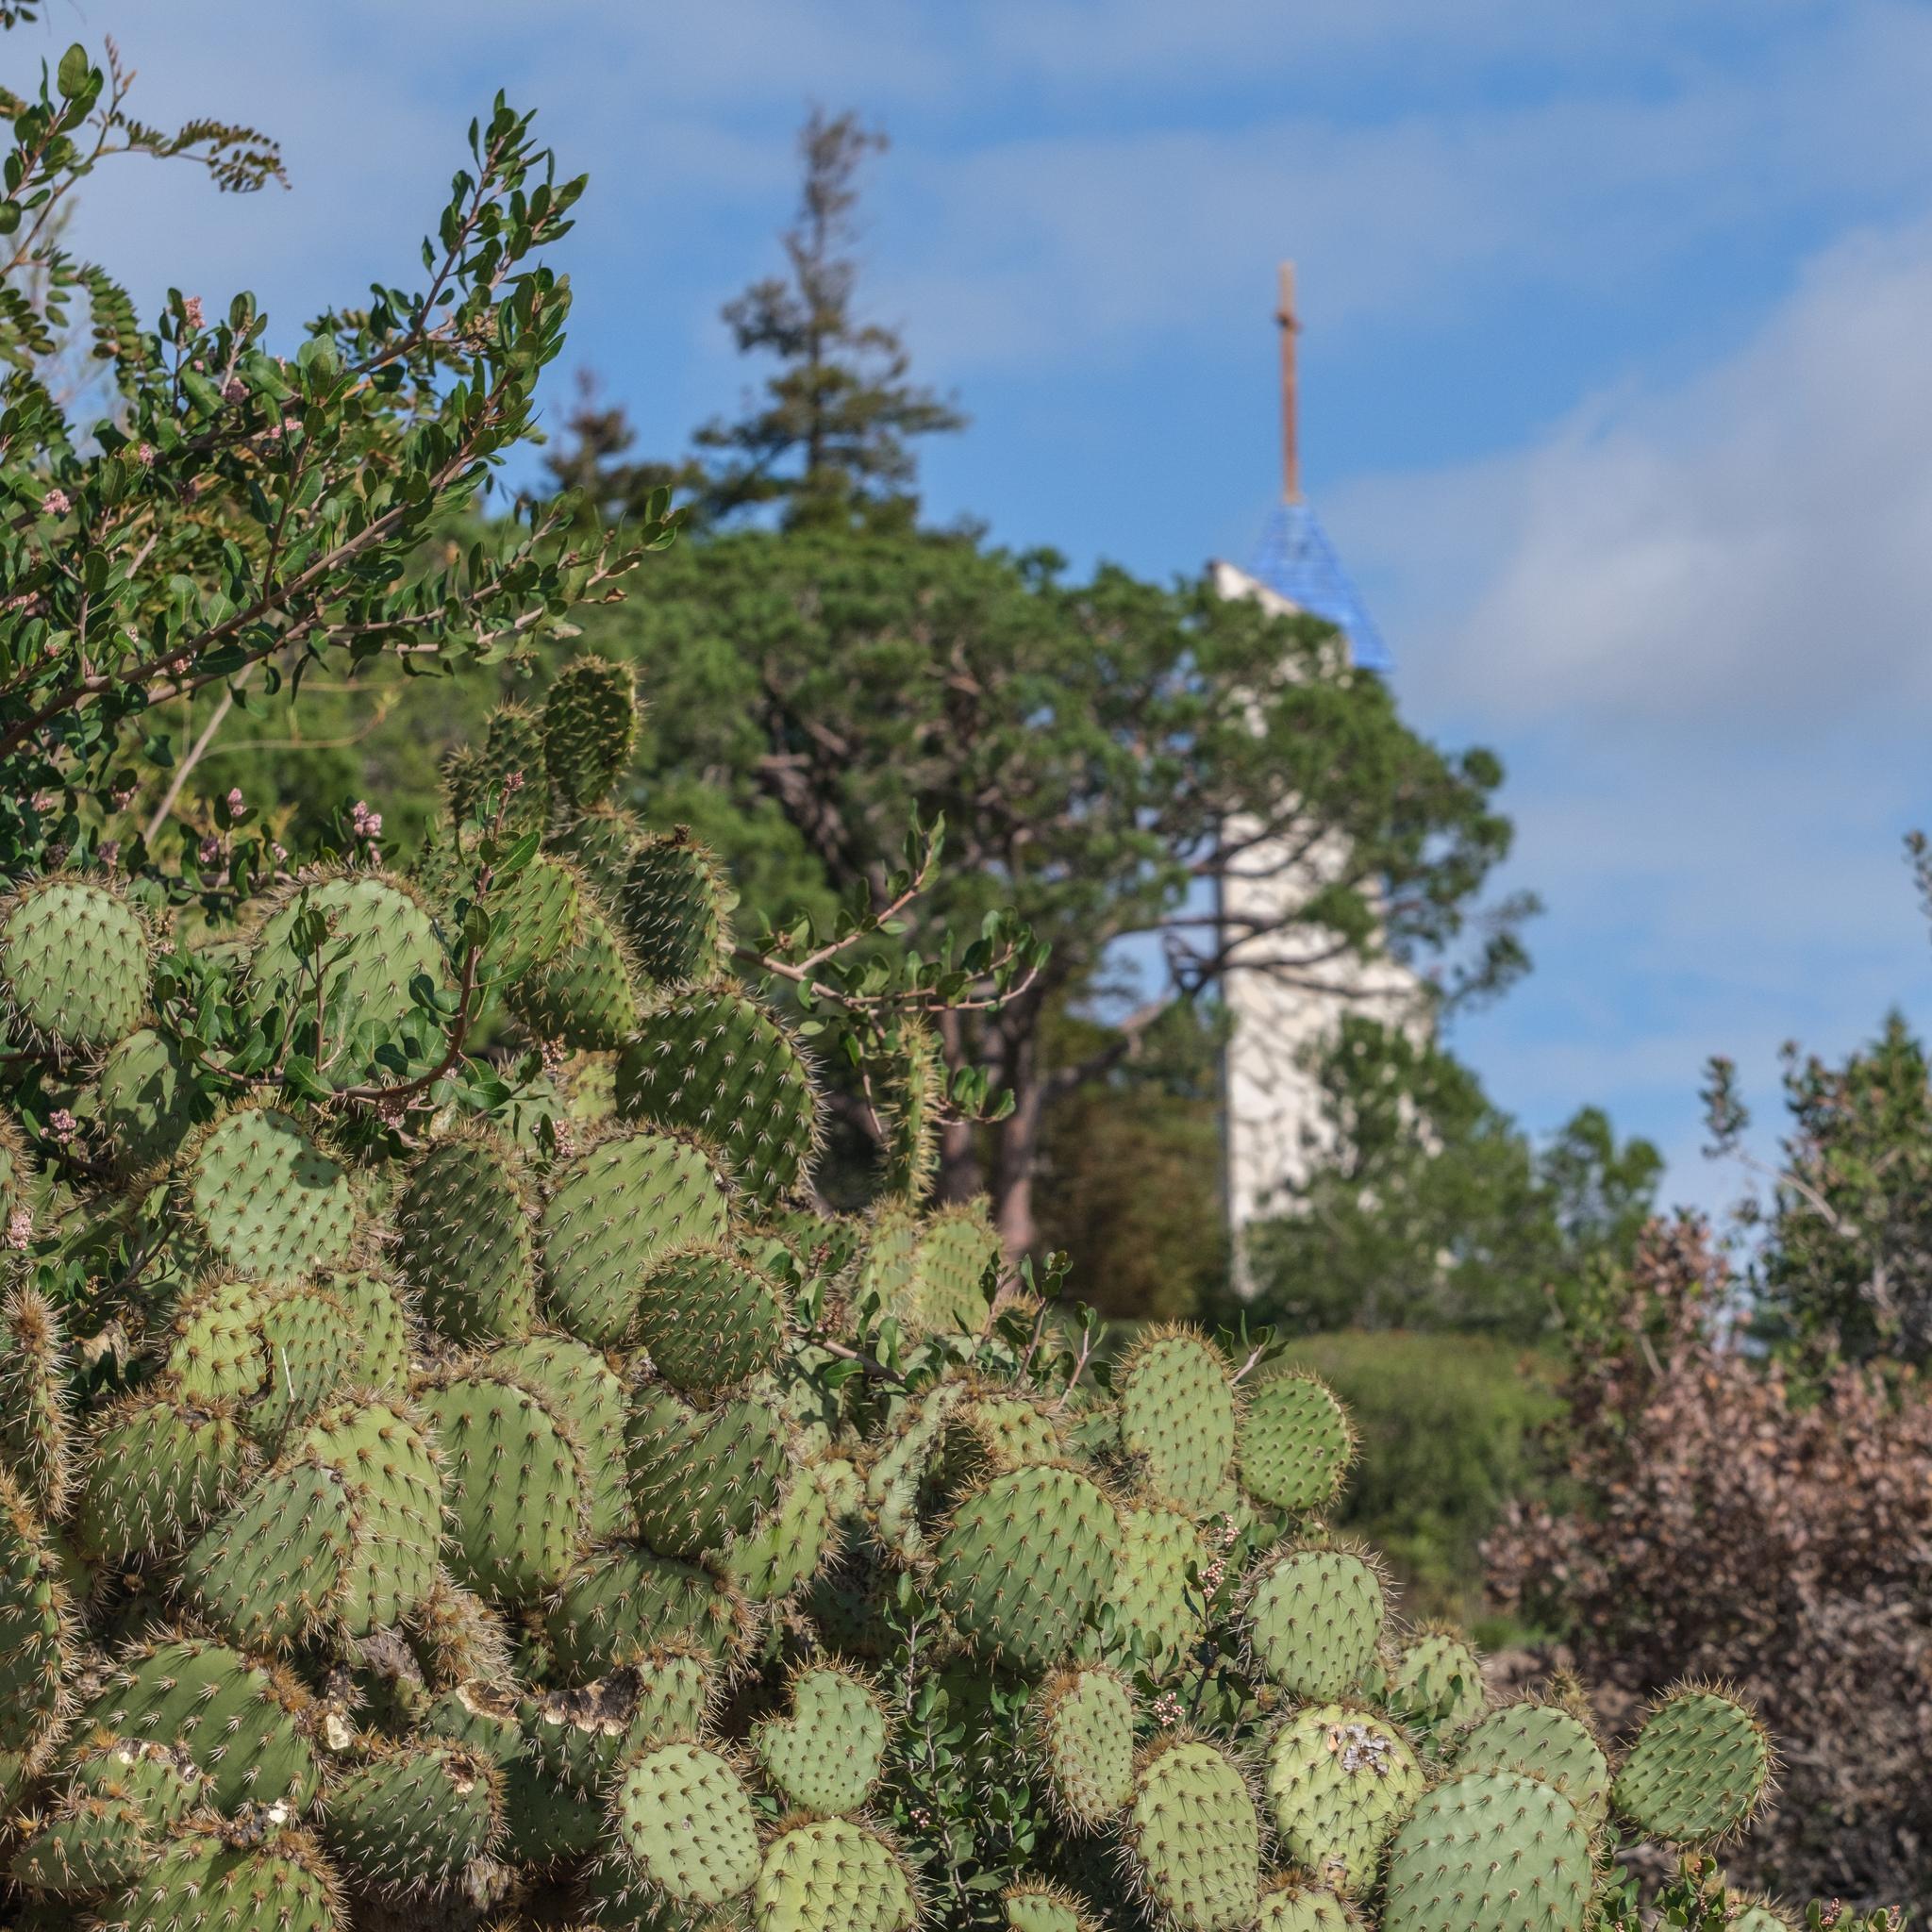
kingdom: Plantae
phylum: Tracheophyta
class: Magnoliopsida
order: Caryophyllales
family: Cactaceae
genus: Opuntia
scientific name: Opuntia oricola
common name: Chaparral prickly-pear
